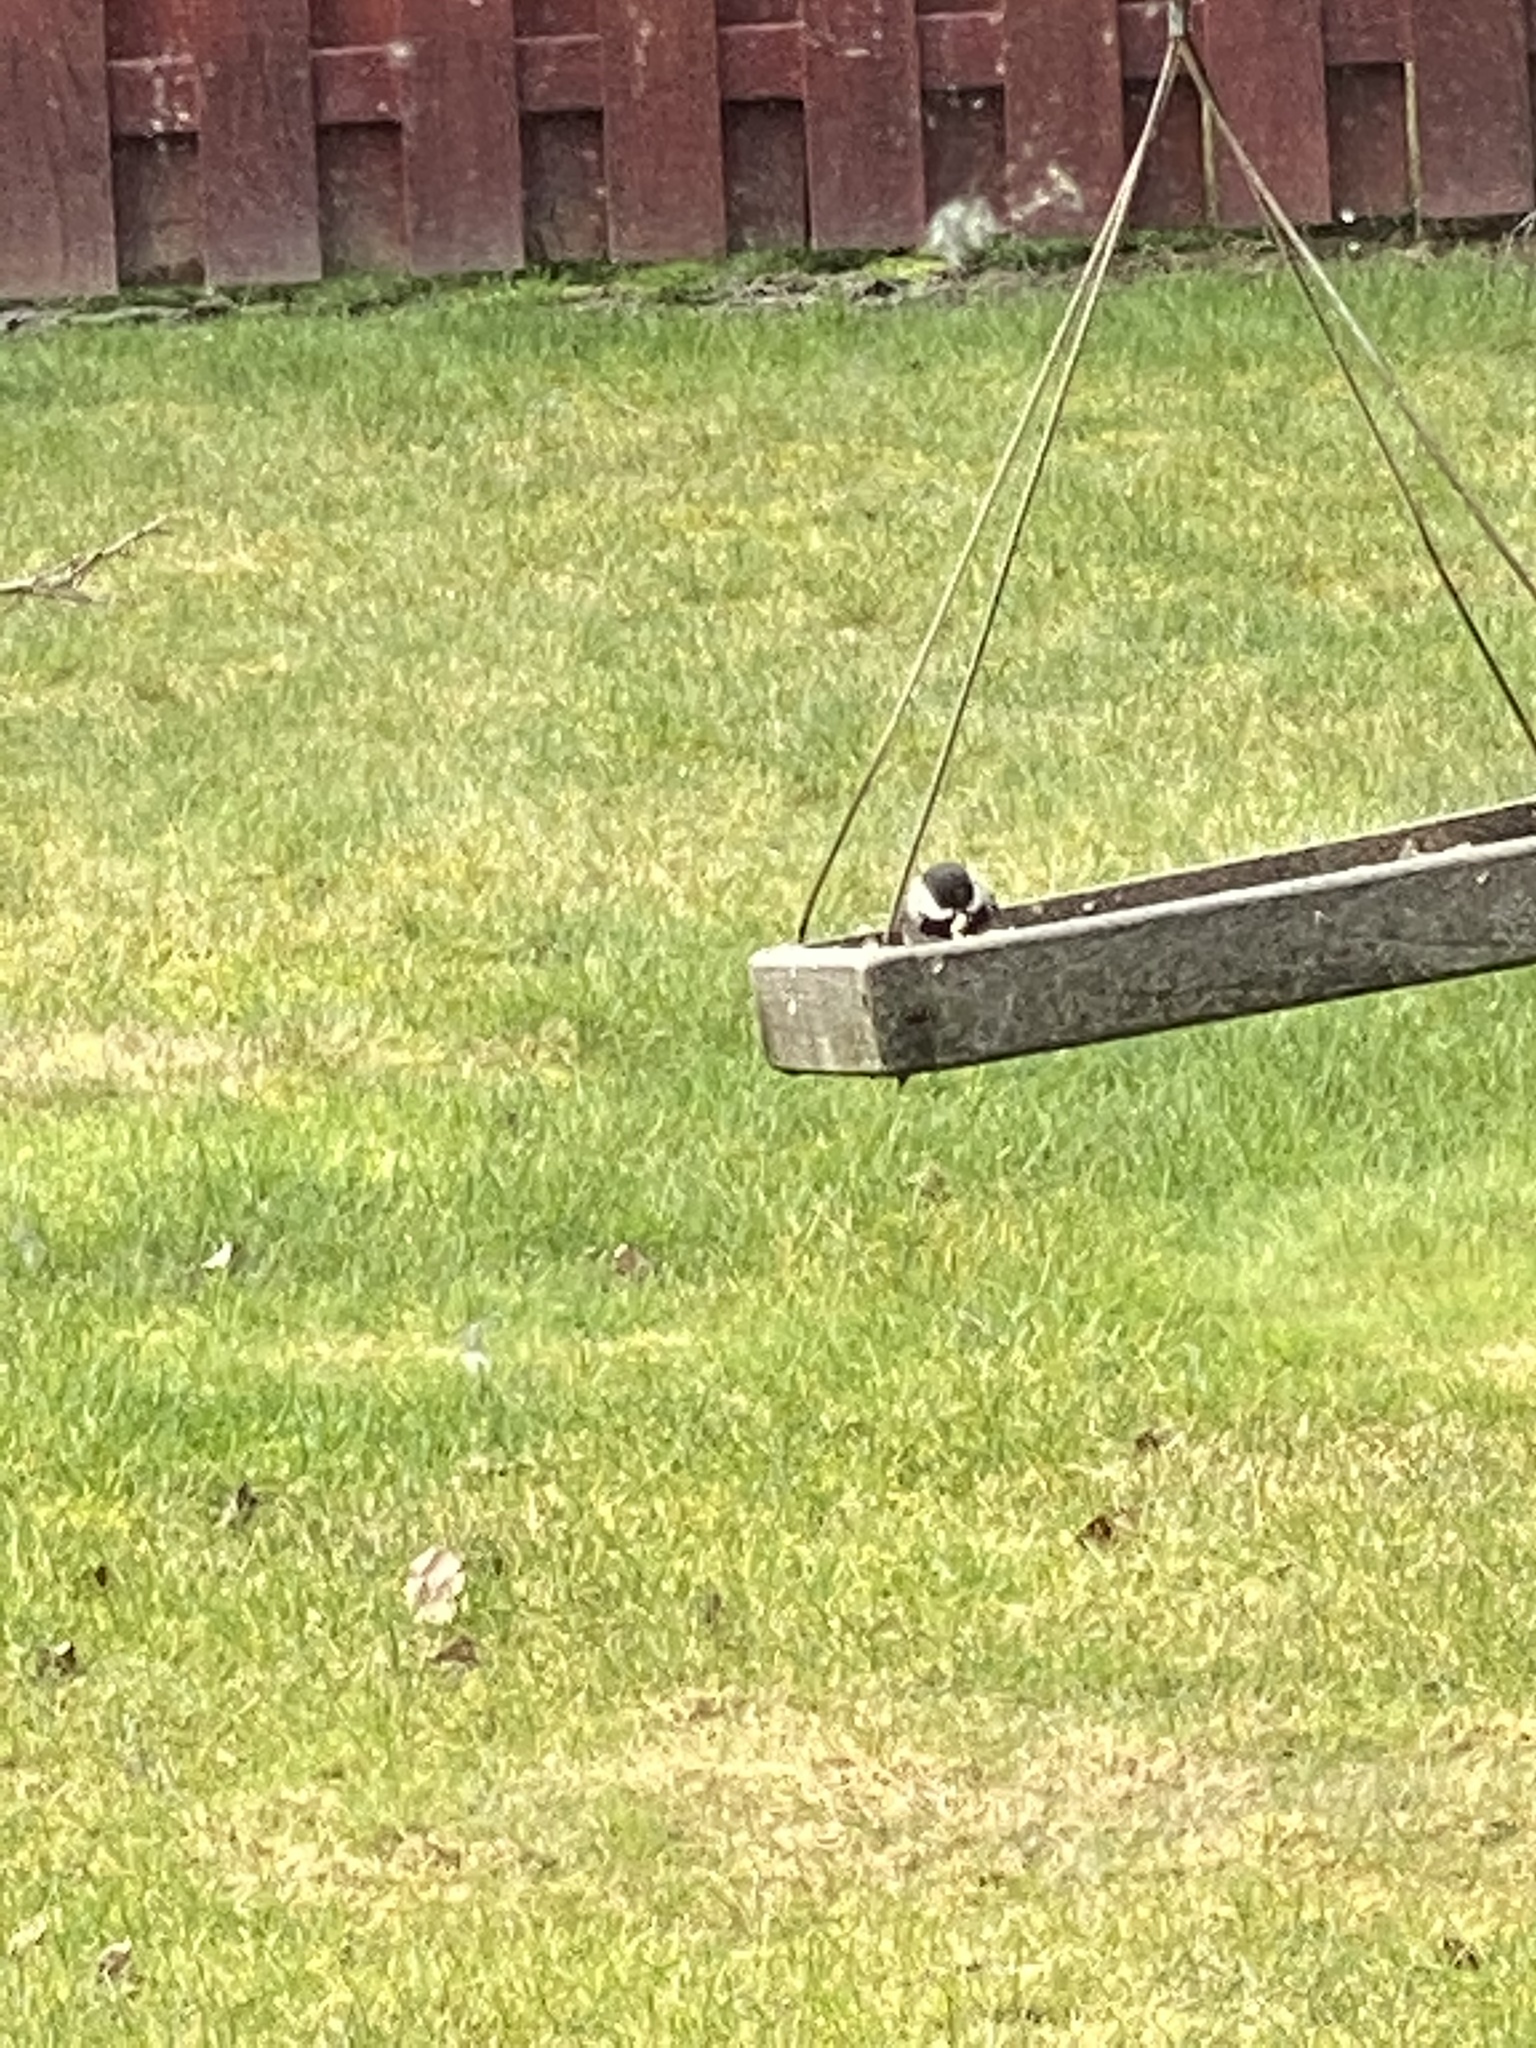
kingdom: Animalia
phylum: Chordata
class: Aves
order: Passeriformes
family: Paridae
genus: Poecile
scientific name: Poecile atricapillus
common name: Black-capped chickadee
